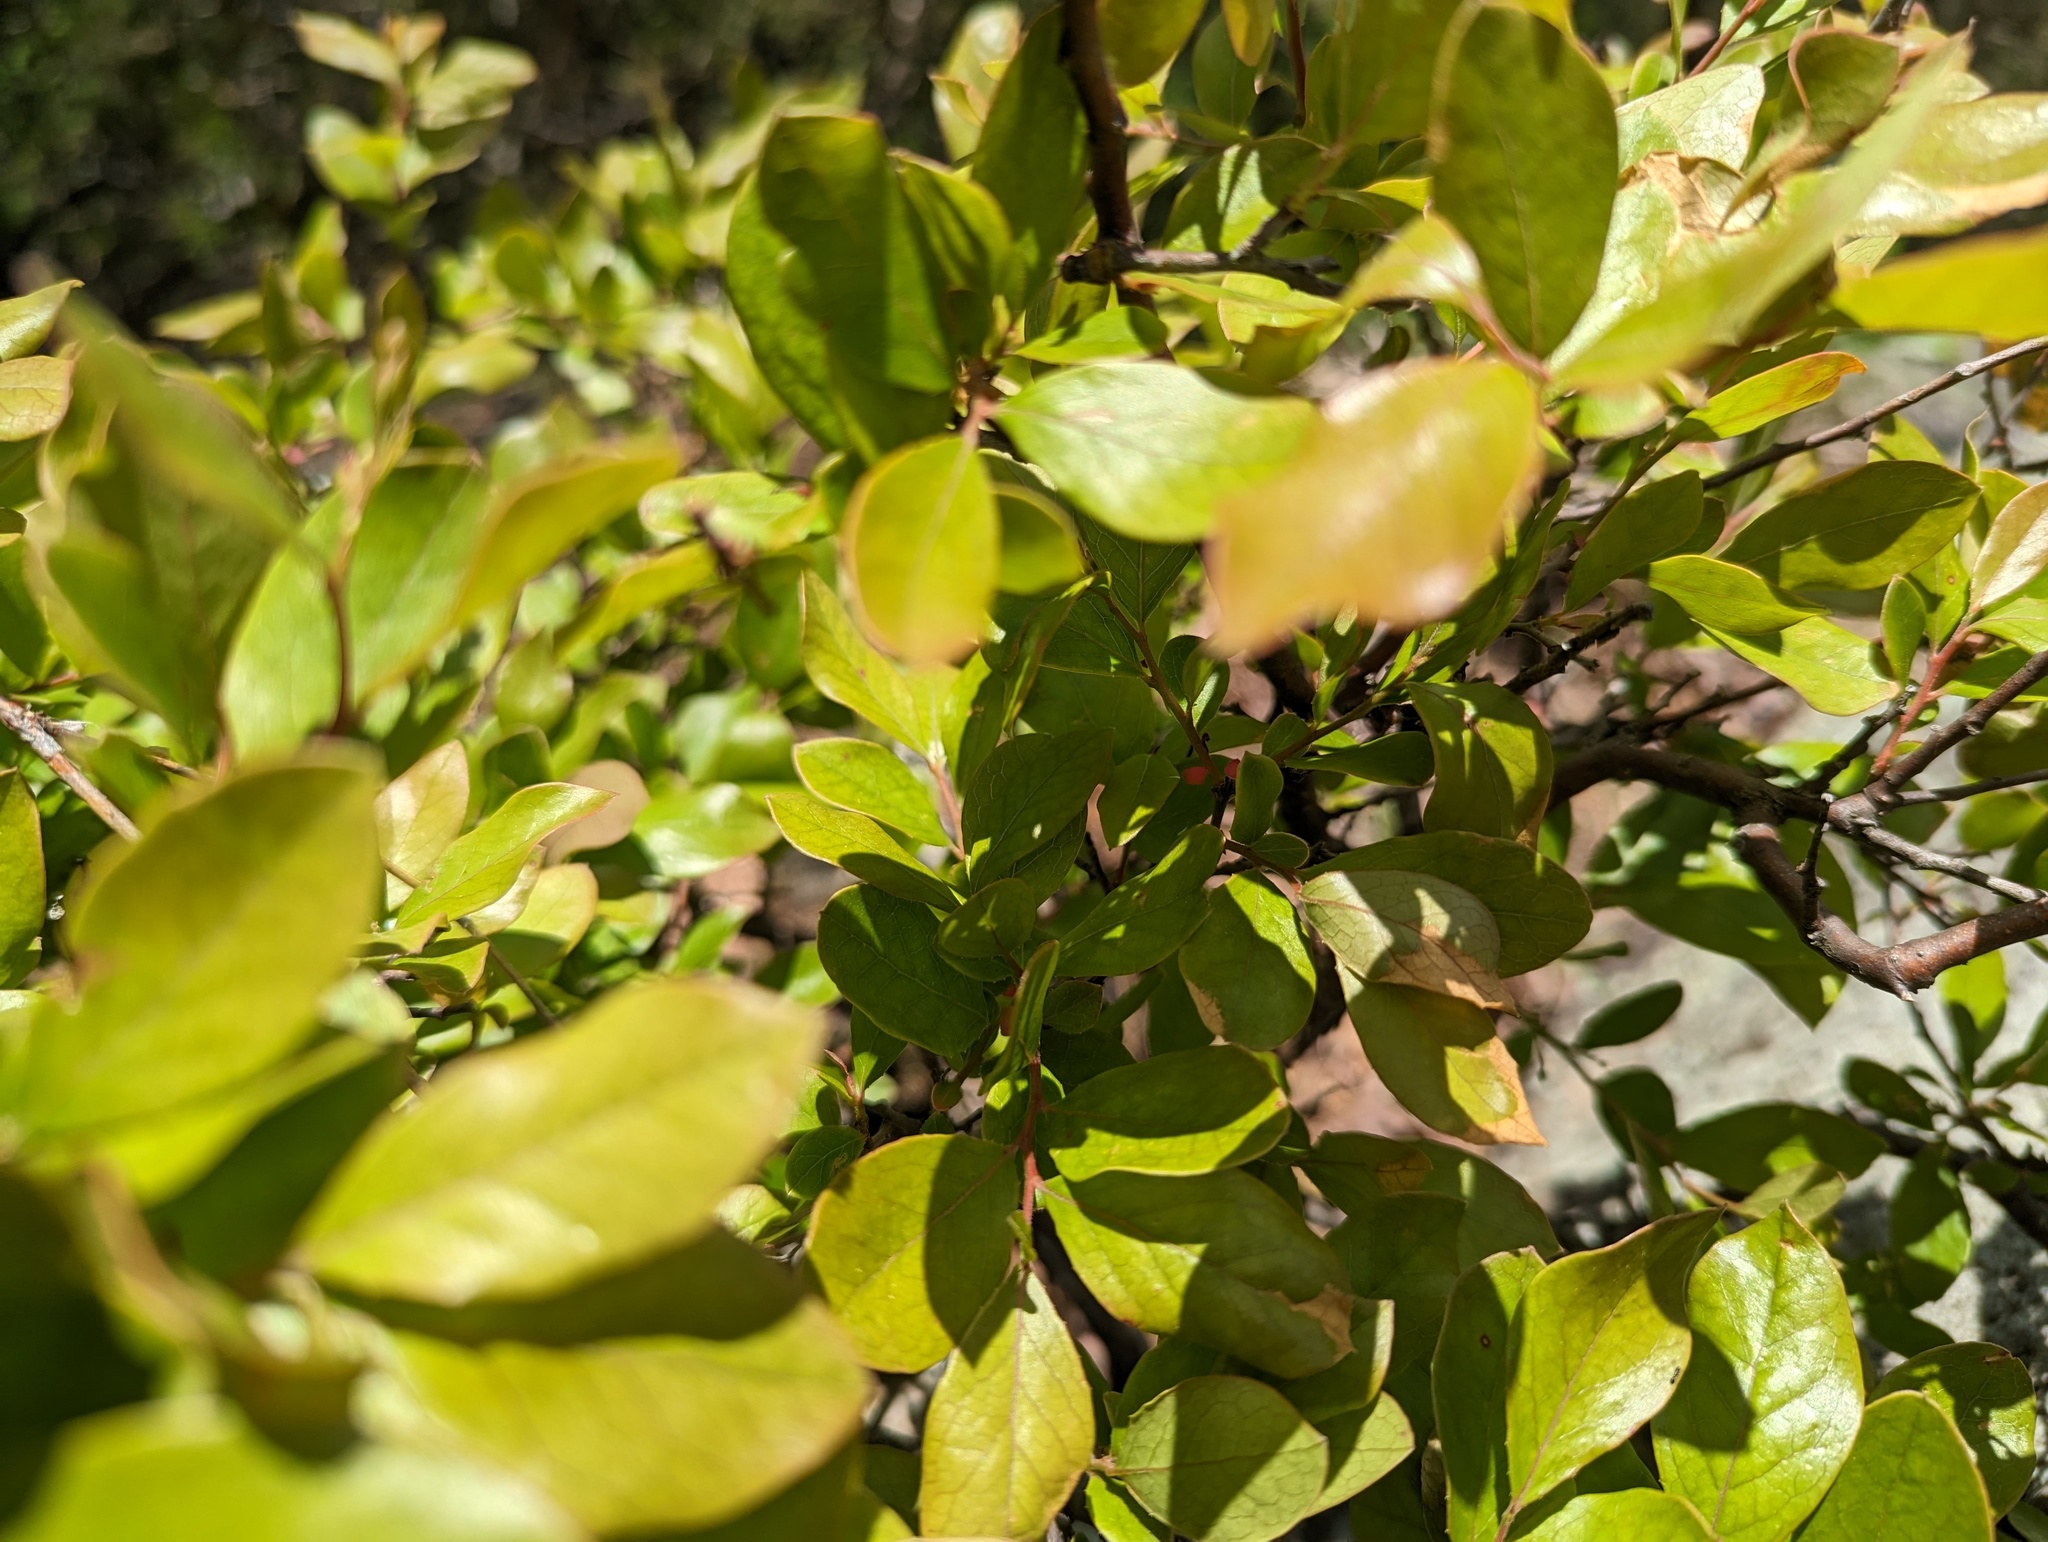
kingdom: Plantae
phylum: Tracheophyta
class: Magnoliopsida
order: Ericales
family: Ericaceae
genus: Vaccinium
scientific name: Vaccinium arboreum
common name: Farkleberry
